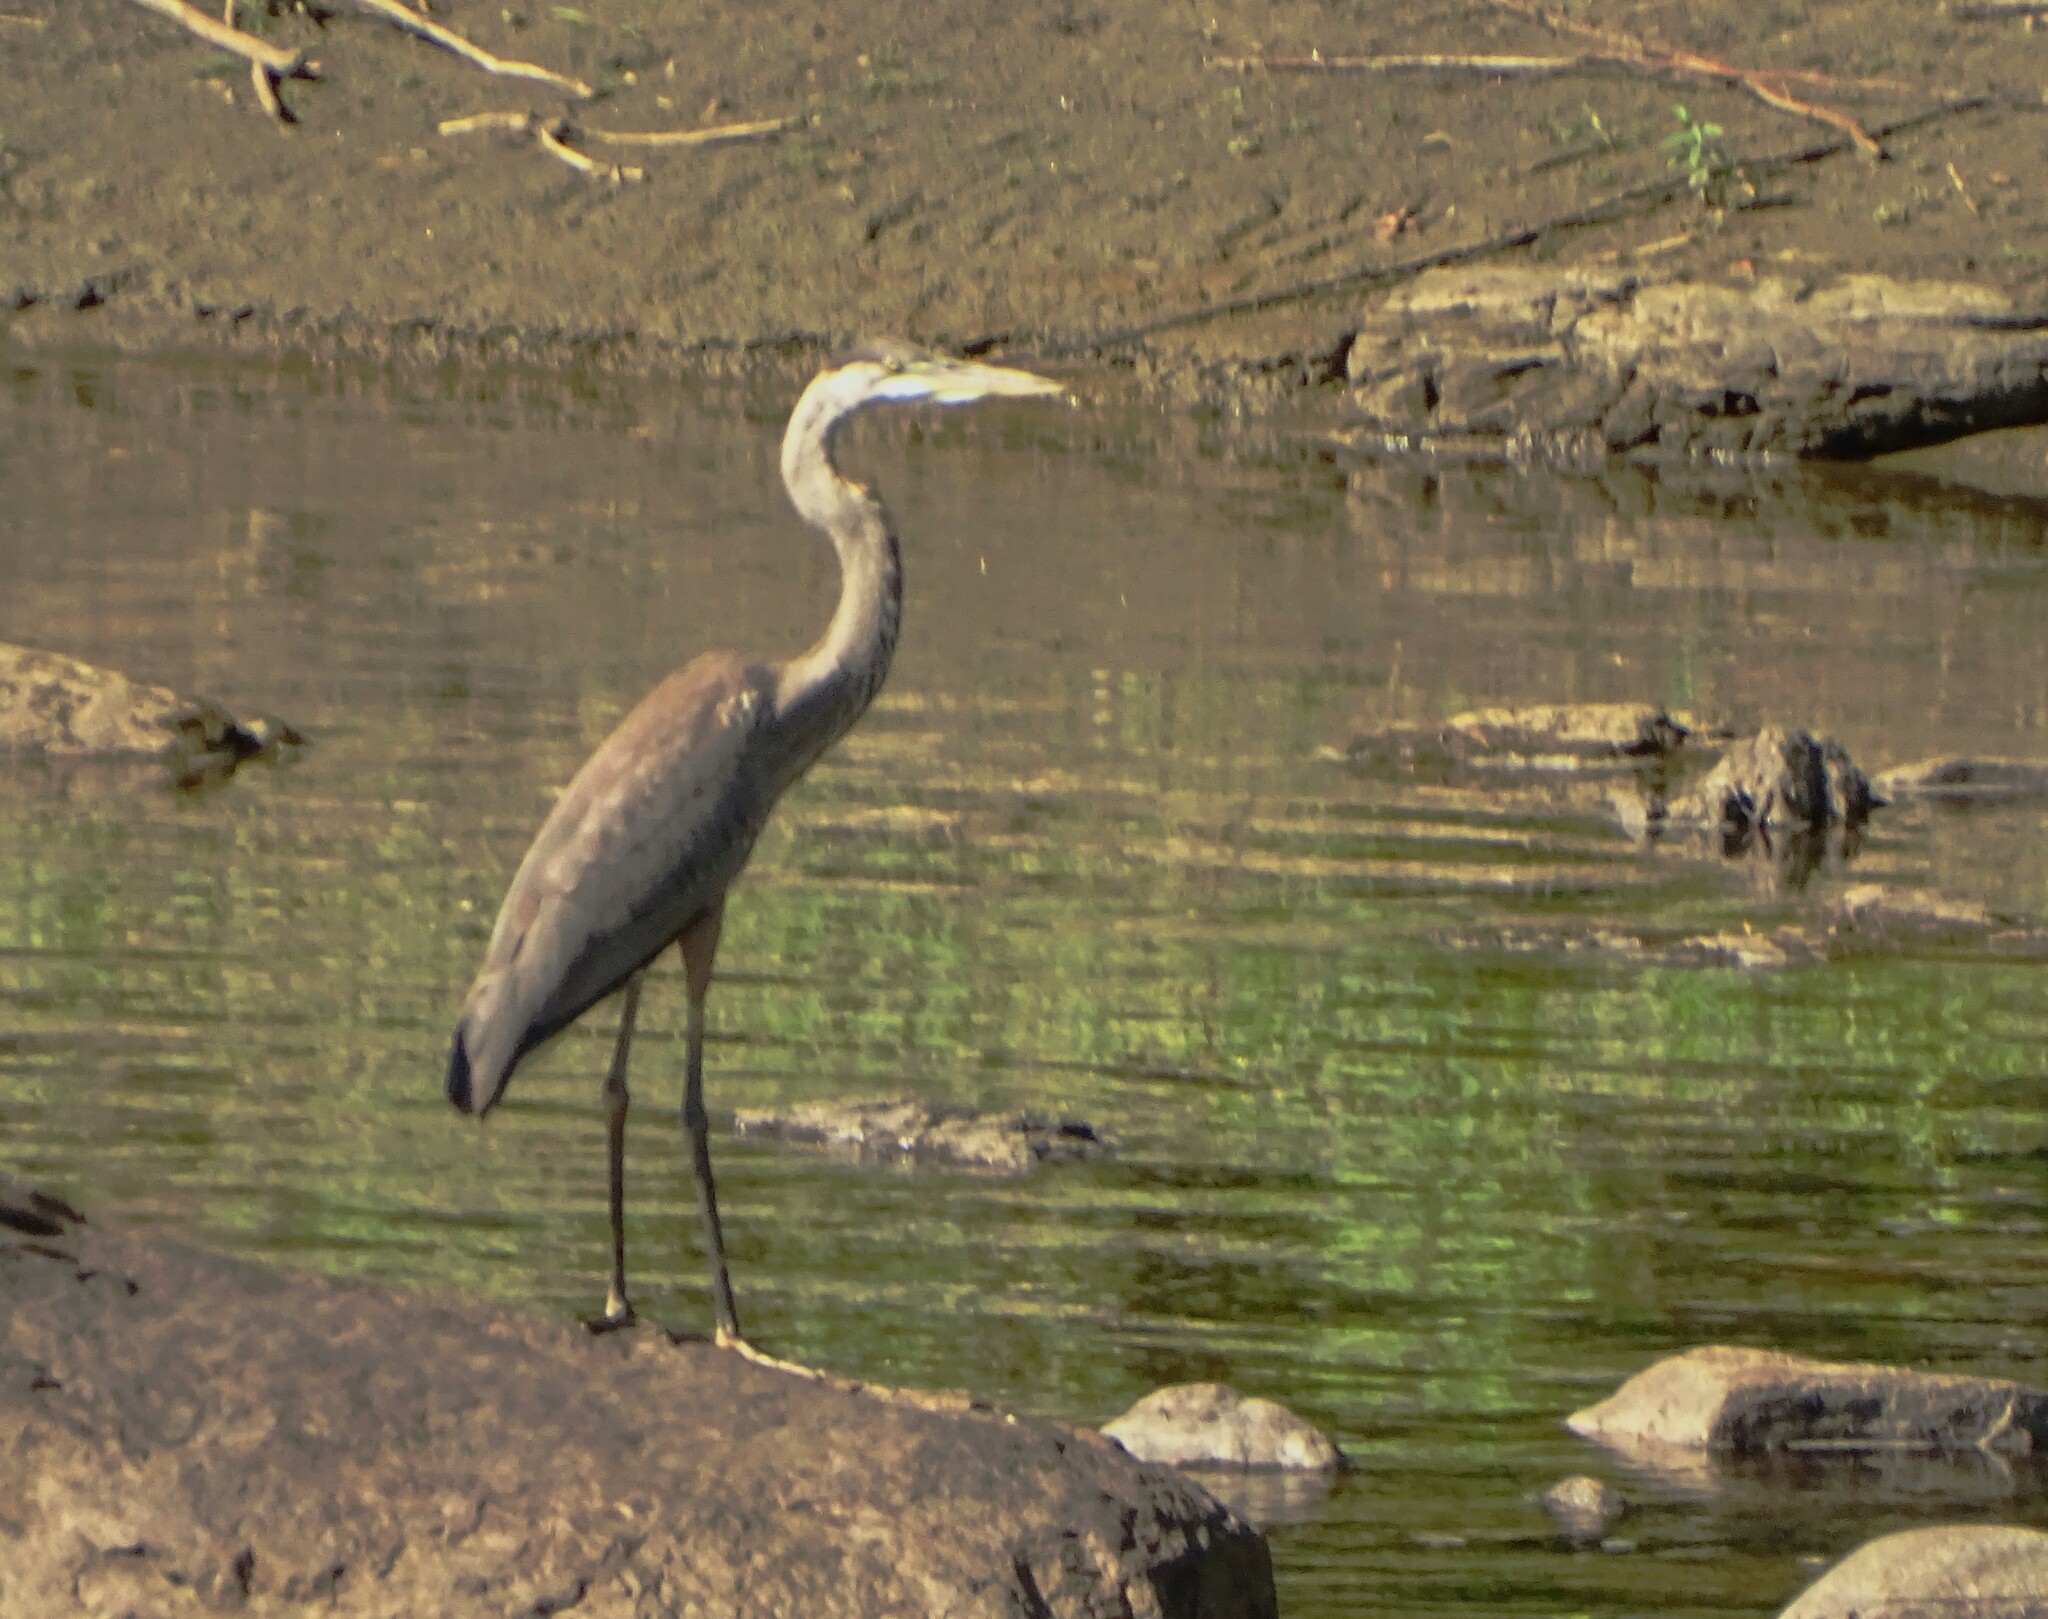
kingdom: Animalia
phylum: Chordata
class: Aves
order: Pelecaniformes
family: Ardeidae
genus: Ardea
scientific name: Ardea herodias
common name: Great blue heron
